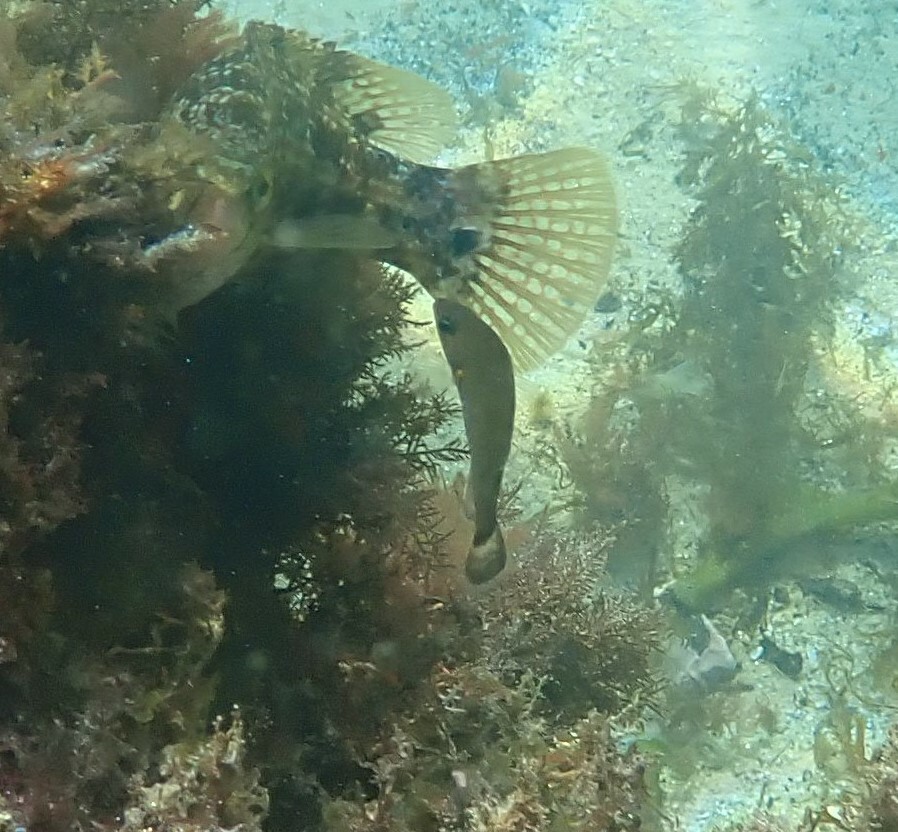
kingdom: Animalia
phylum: Chordata
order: Perciformes
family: Labridae
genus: Centrolabrus
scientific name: Centrolabrus exoletus
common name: Rock cook
